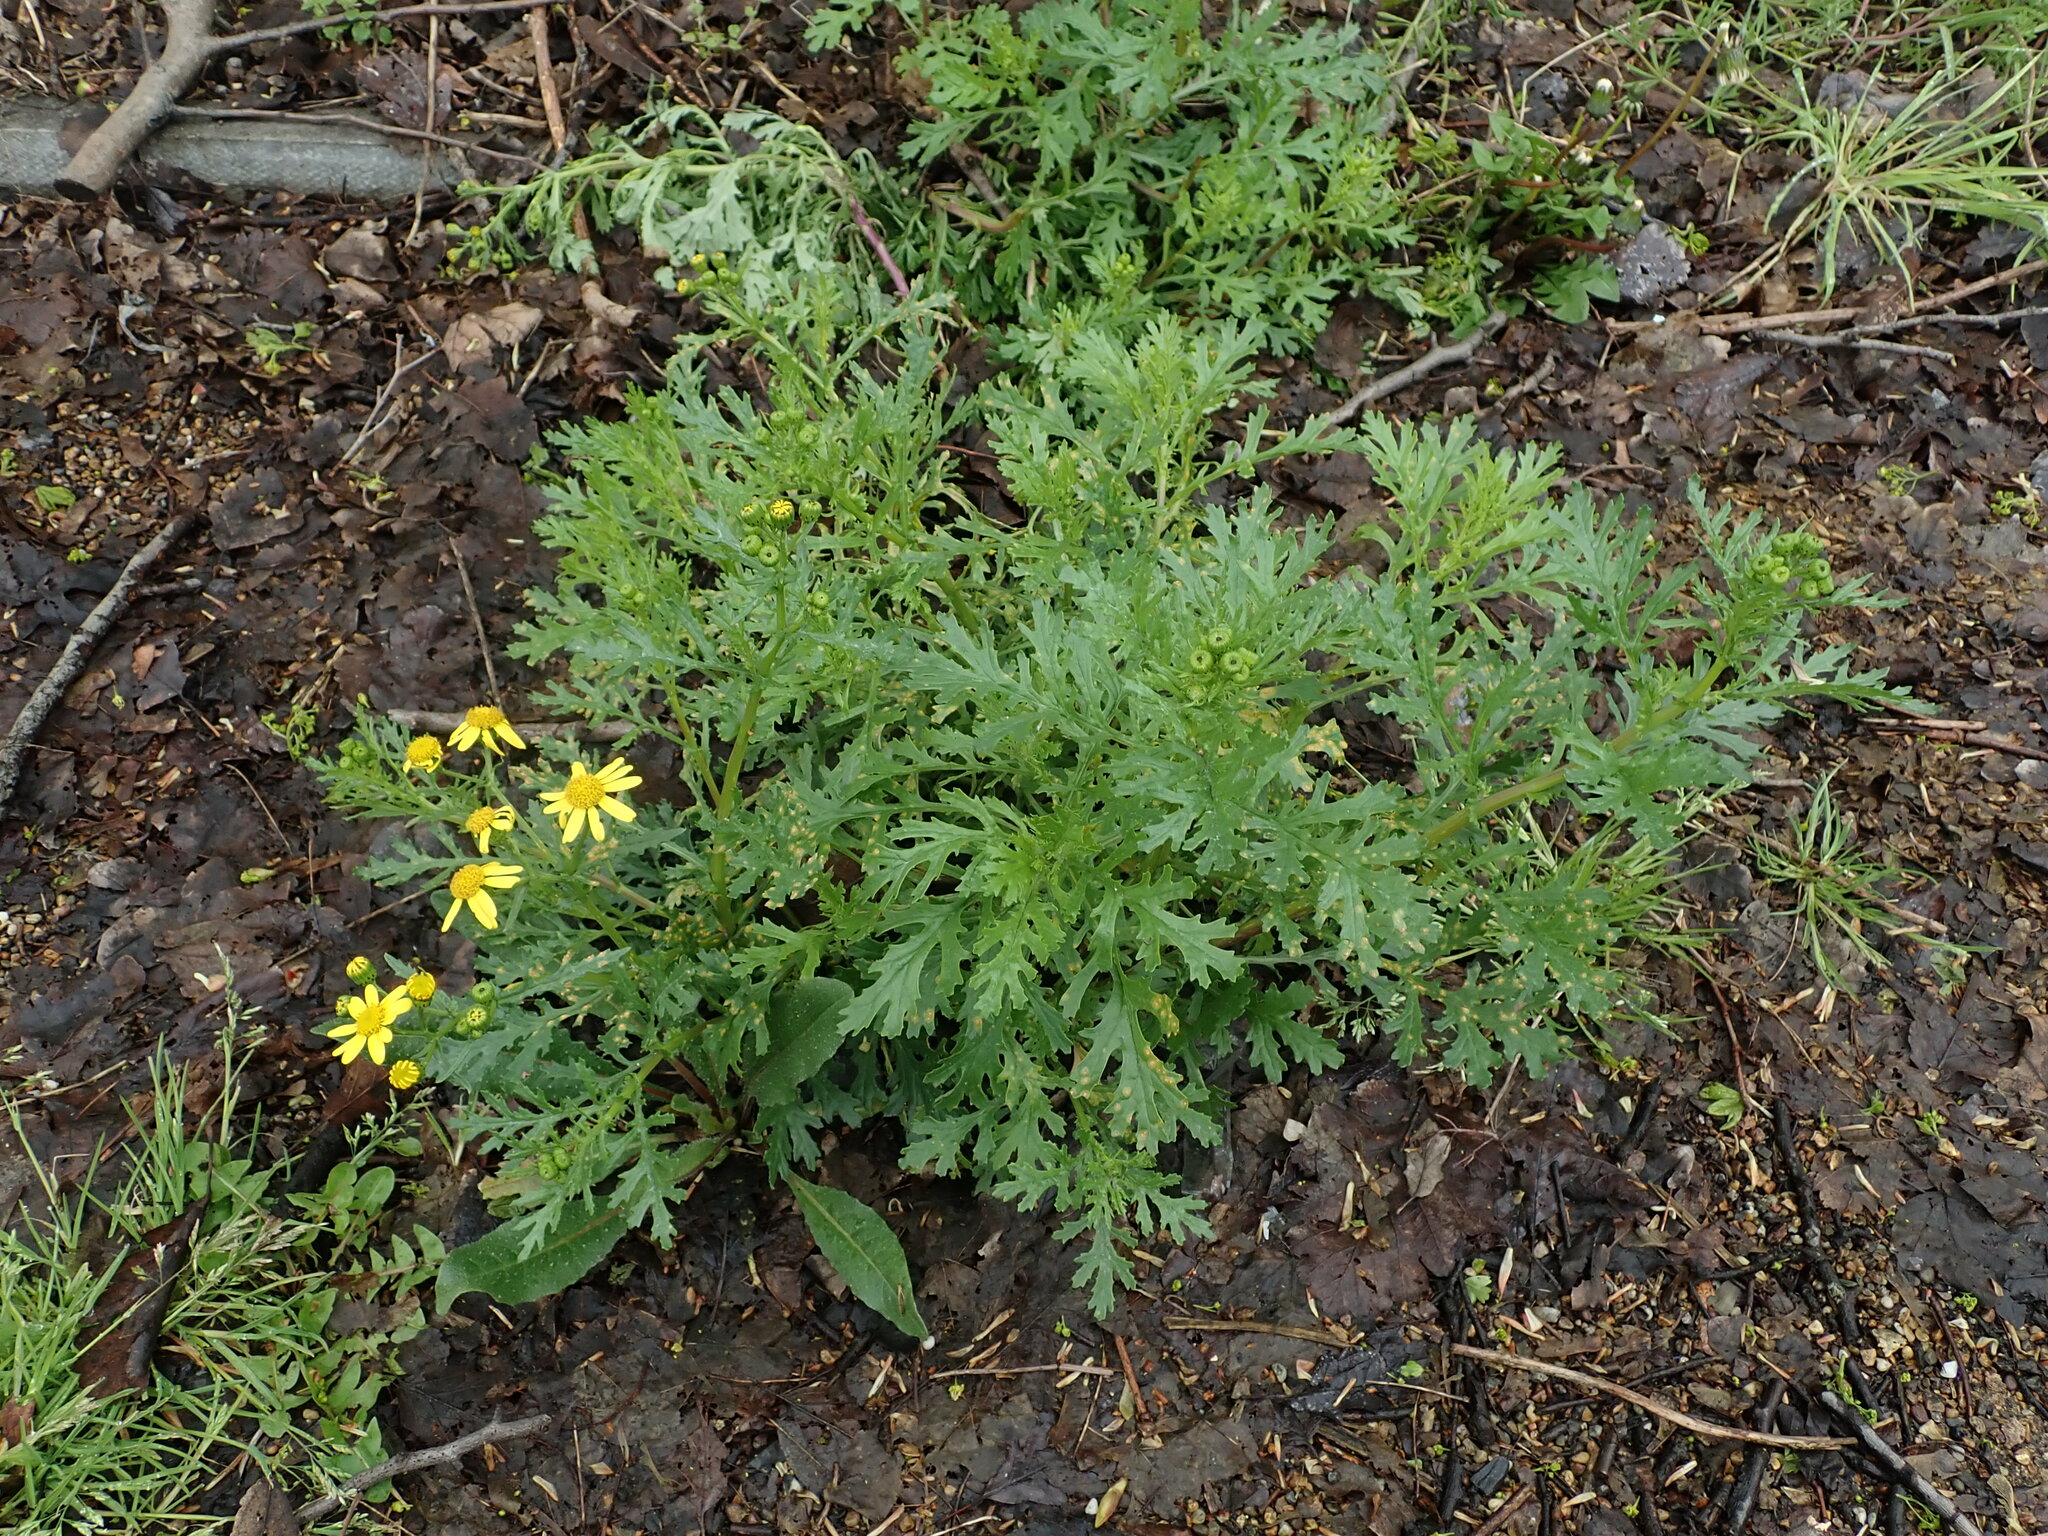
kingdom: Plantae
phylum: Tracheophyta
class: Magnoliopsida
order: Asterales
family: Asteraceae
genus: Senecio
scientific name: Senecio squalidus
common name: Oxford ragwort
